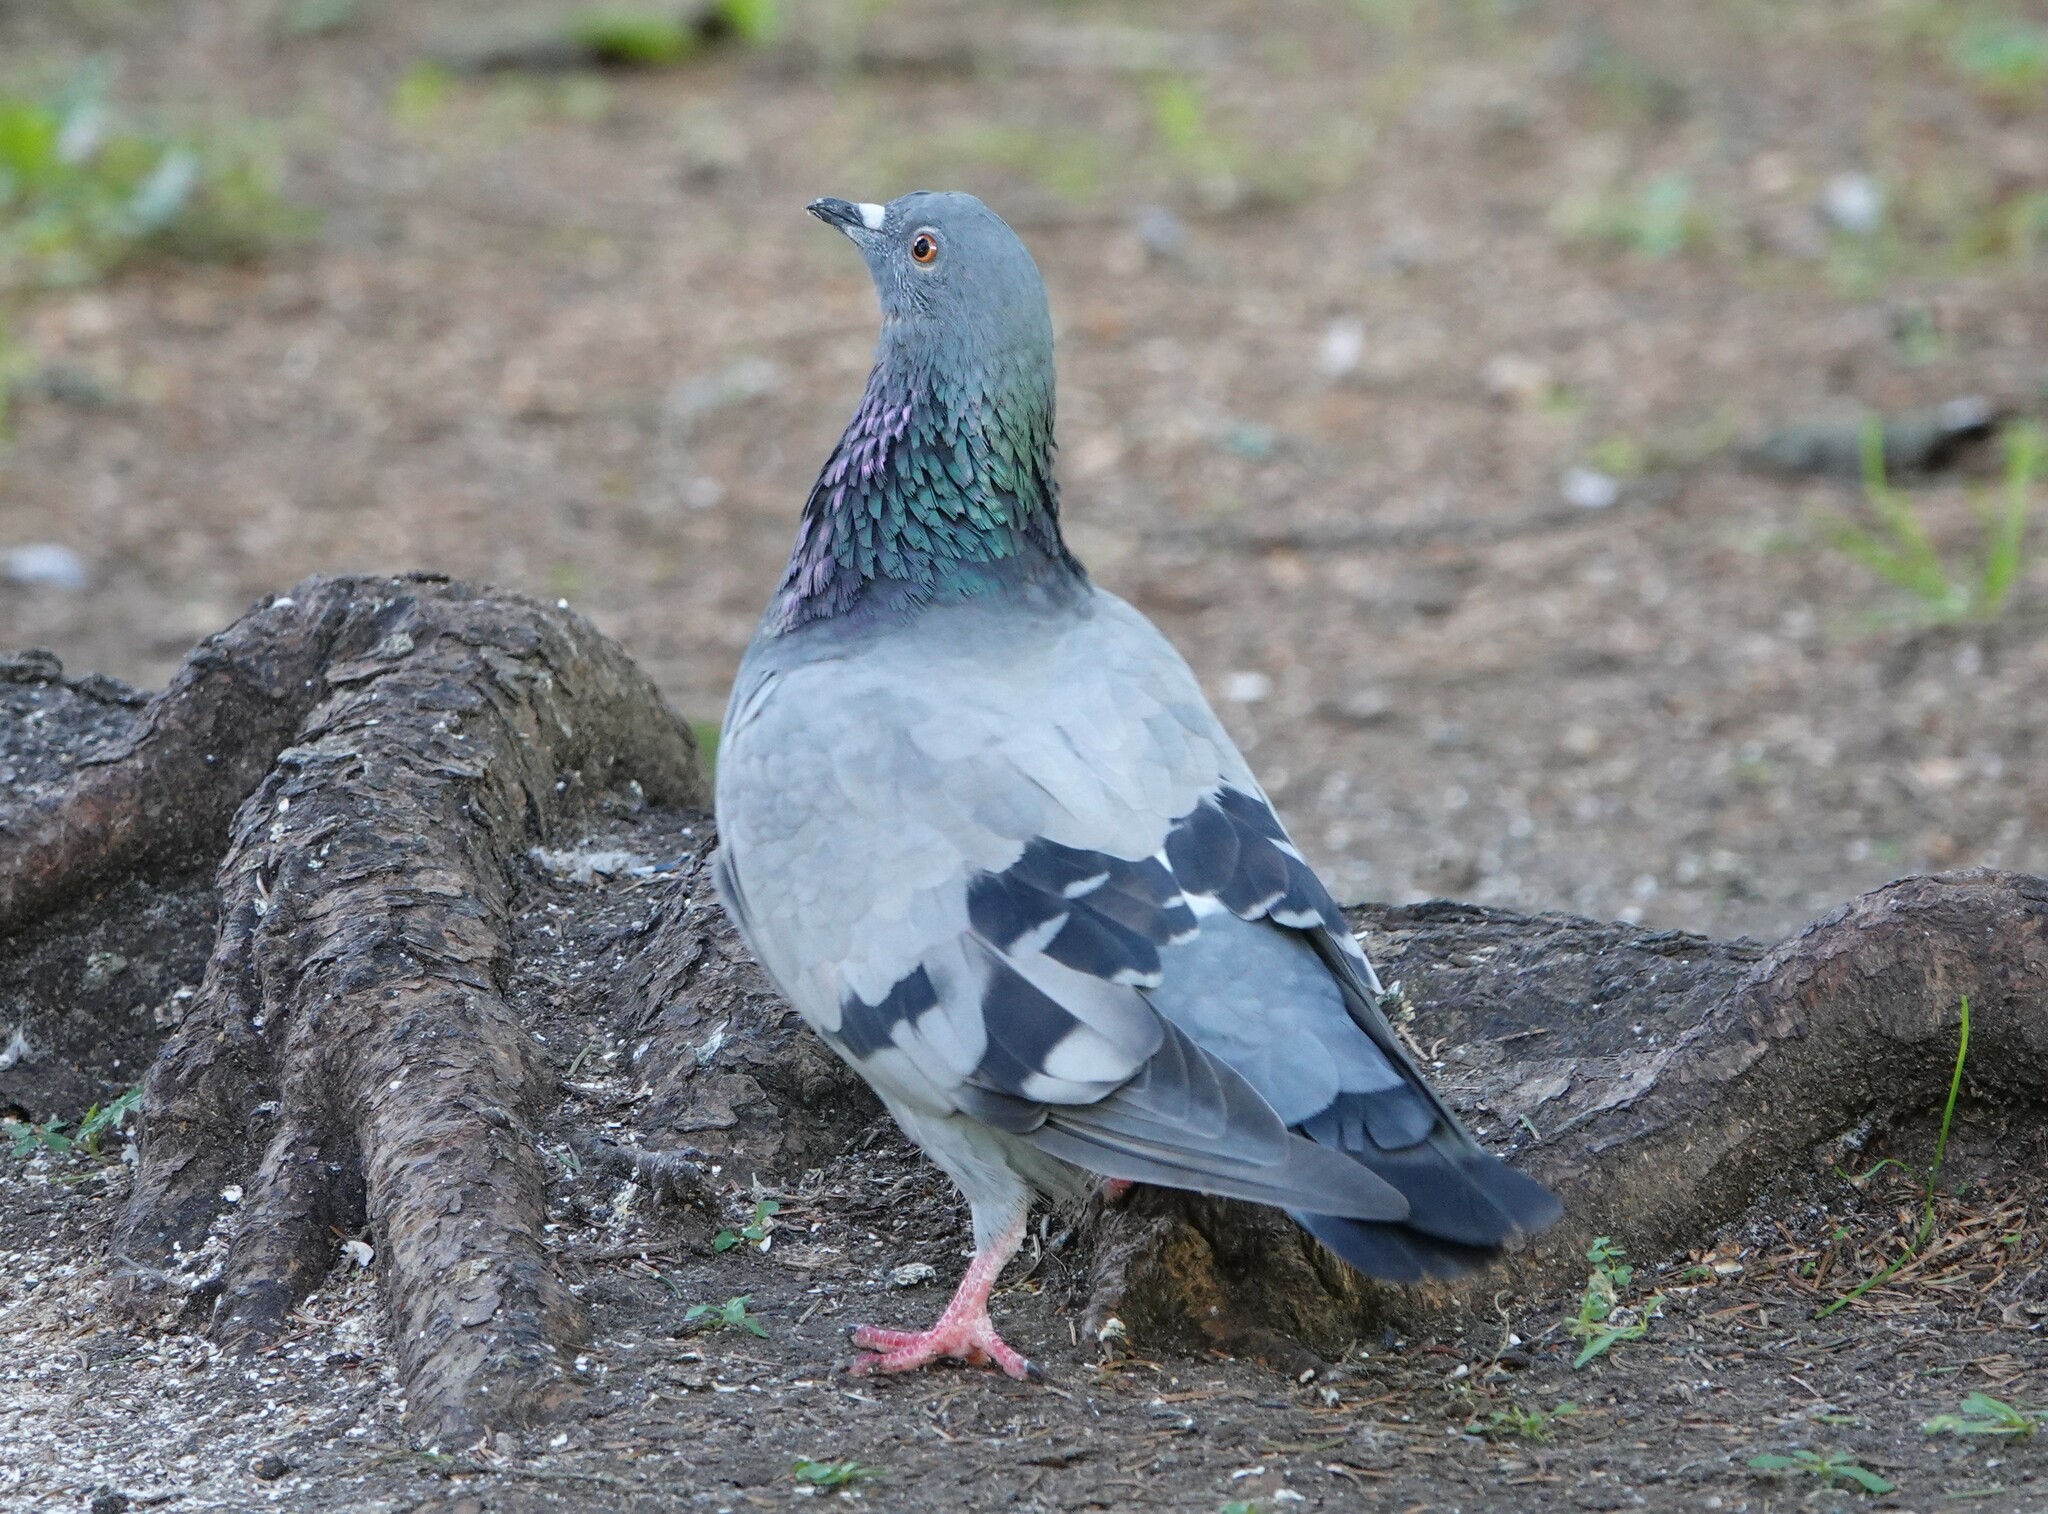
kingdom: Animalia
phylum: Chordata
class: Aves
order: Columbiformes
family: Columbidae
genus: Columba
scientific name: Columba livia
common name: Rock pigeon
